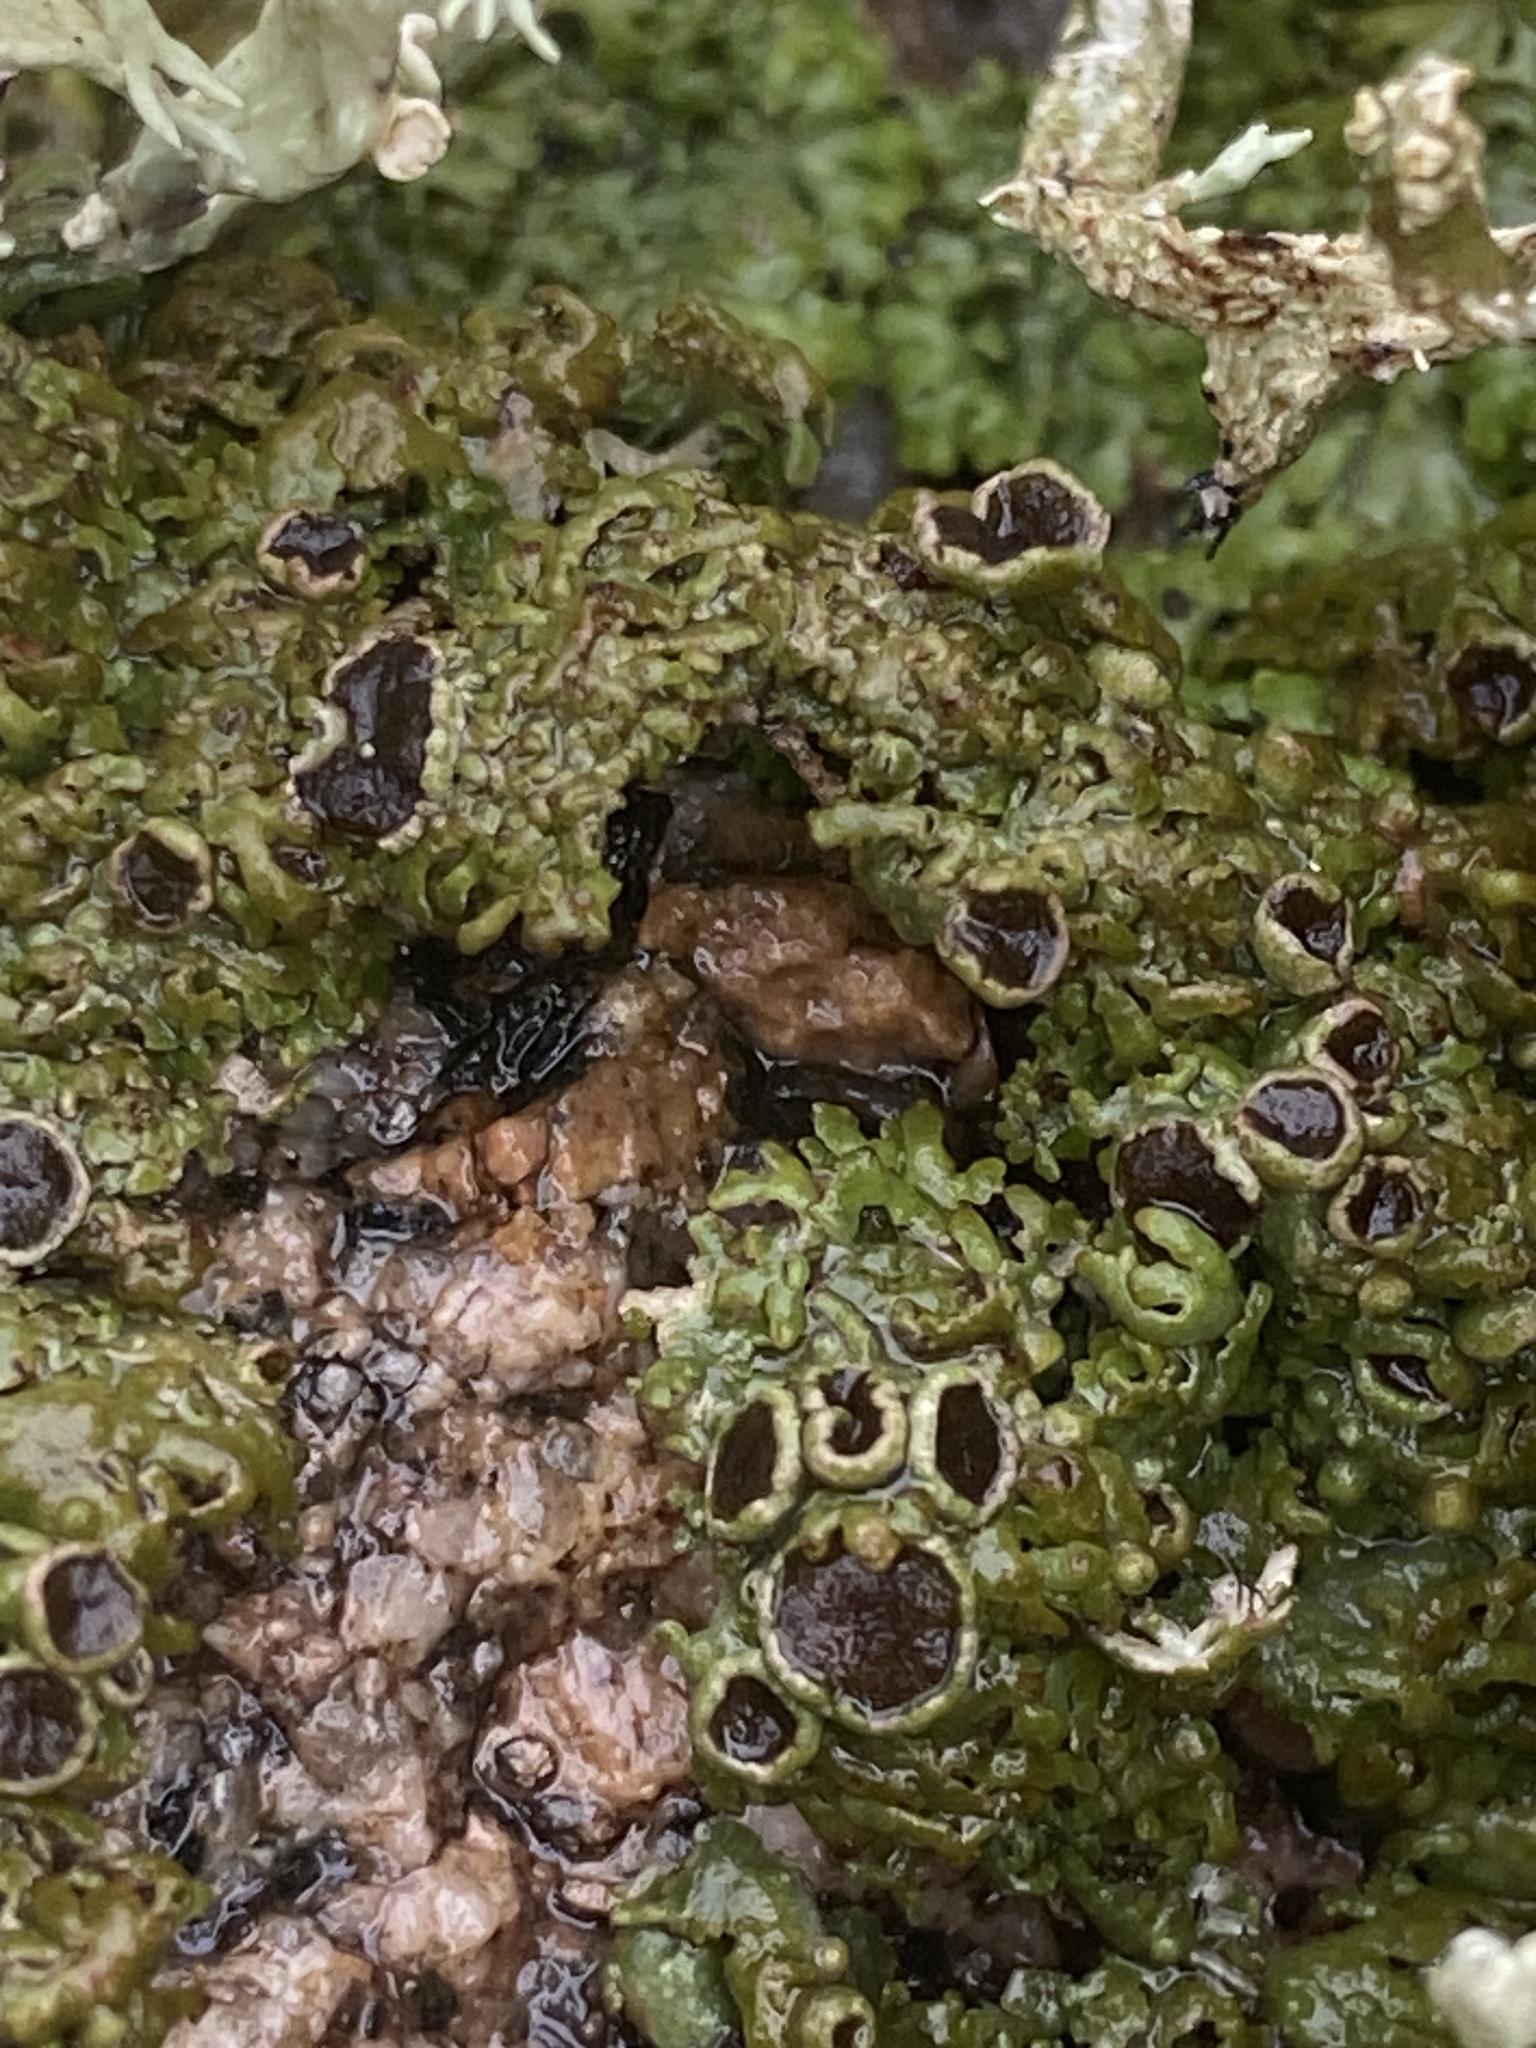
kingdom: Fungi
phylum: Ascomycota
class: Lecanoromycetes
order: Caliciales
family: Physciaceae
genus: Kurokawia
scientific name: Kurokawia runcinata
